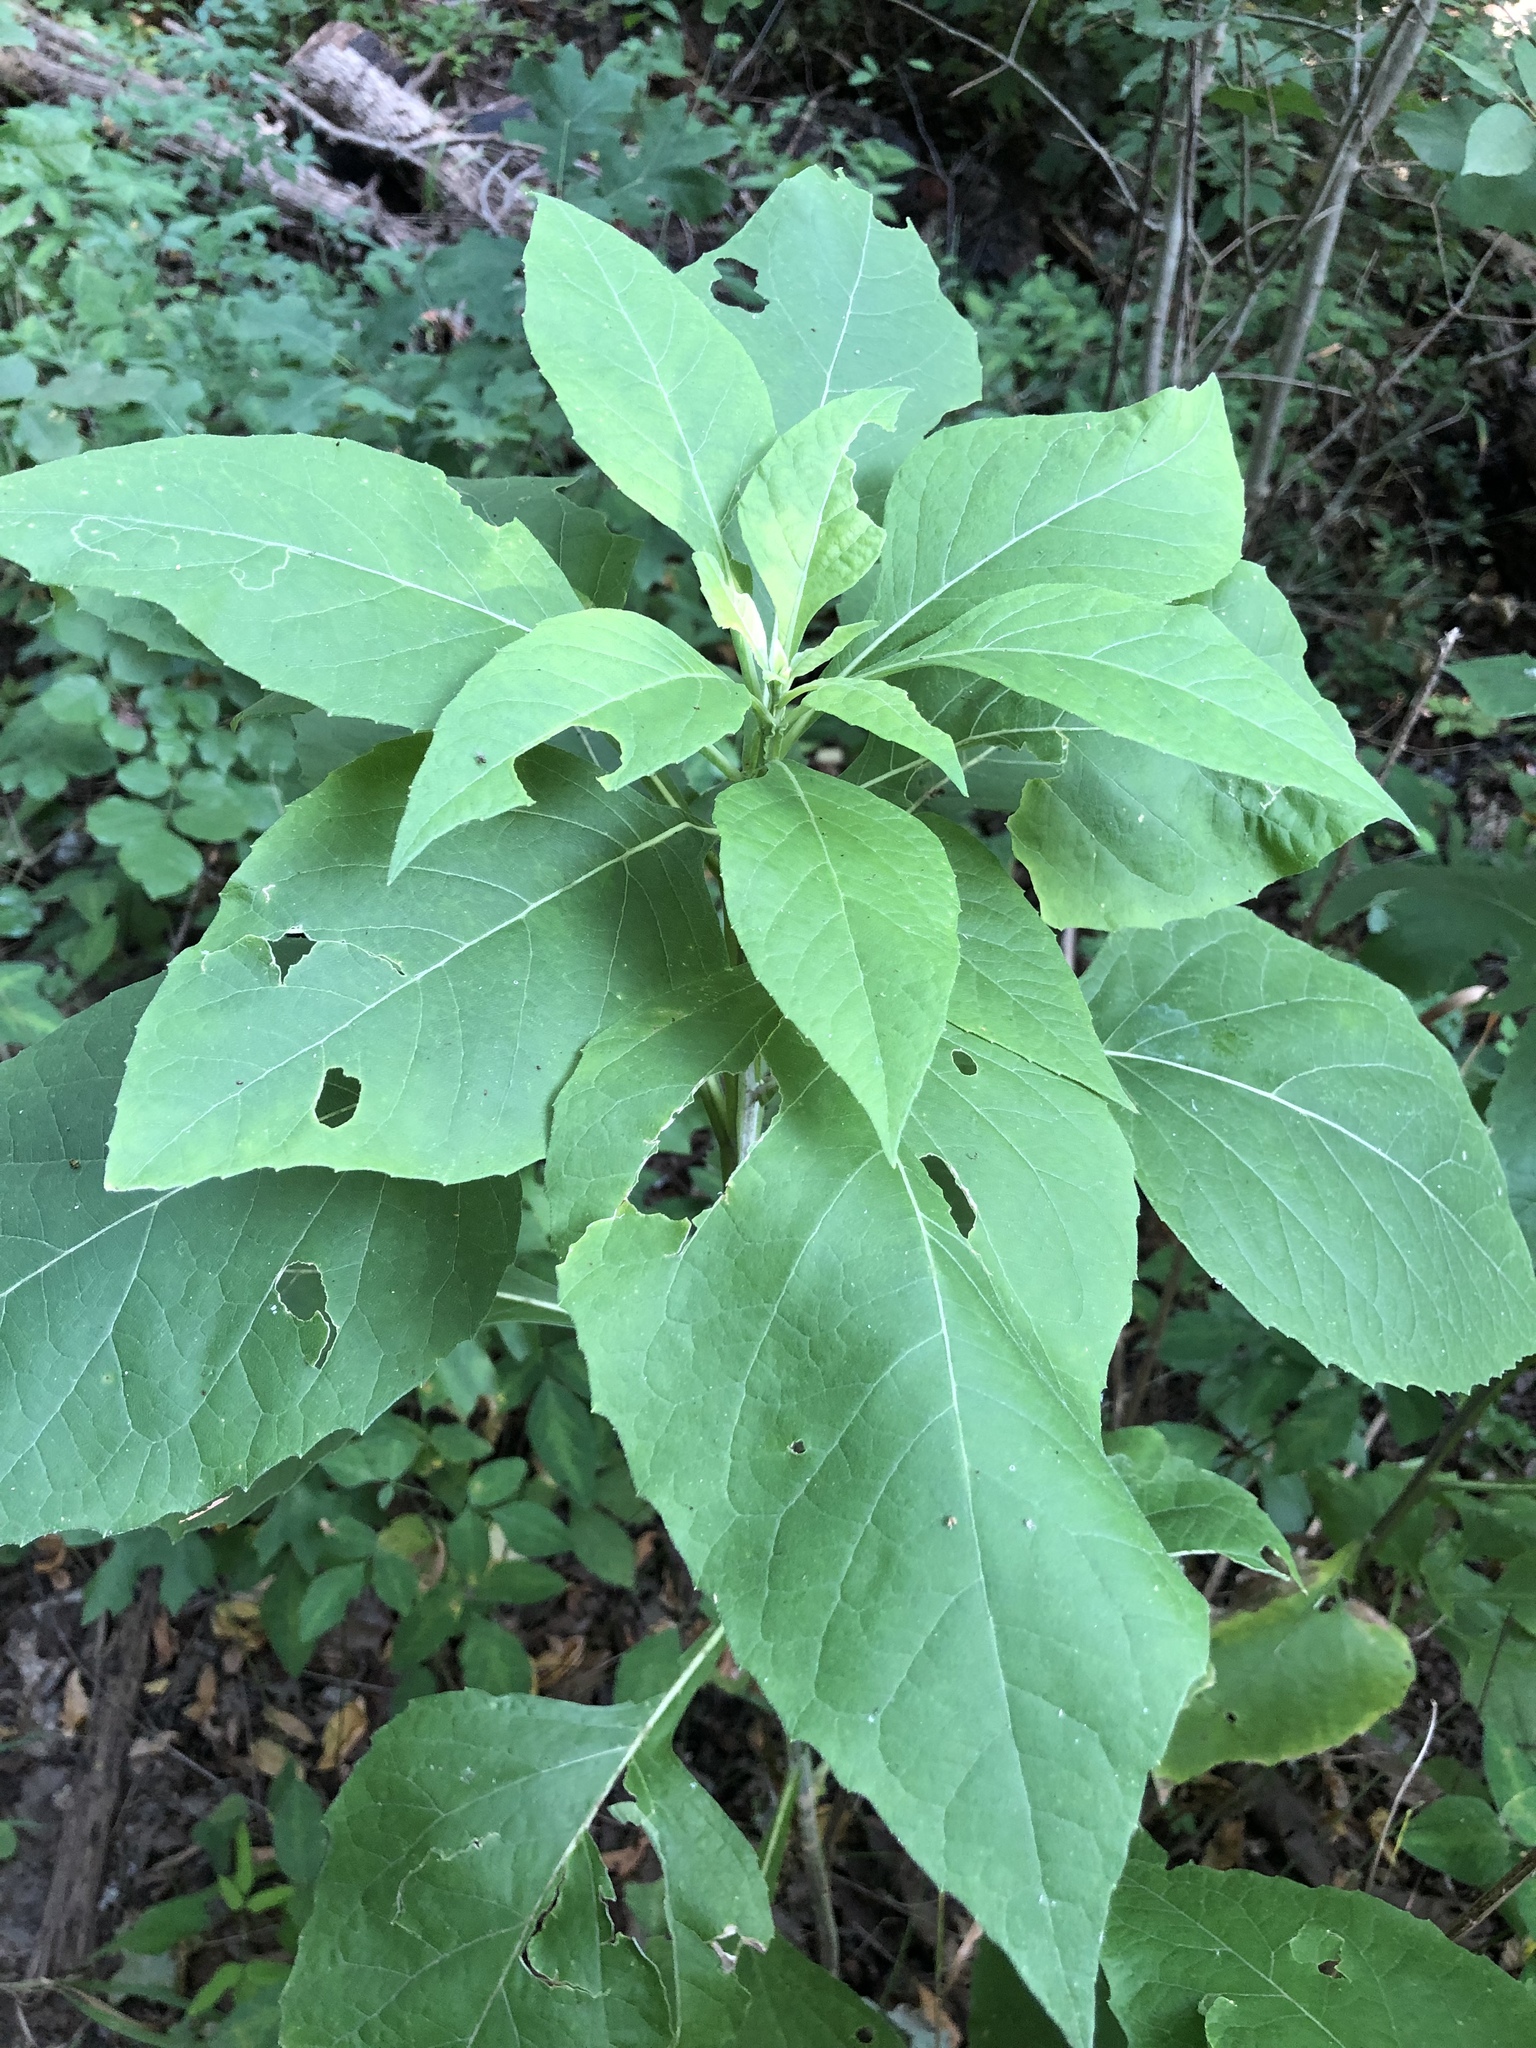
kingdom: Plantae
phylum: Tracheophyta
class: Magnoliopsida
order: Asterales
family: Asteraceae
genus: Verbesina
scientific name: Verbesina virginica
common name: Frostweed
